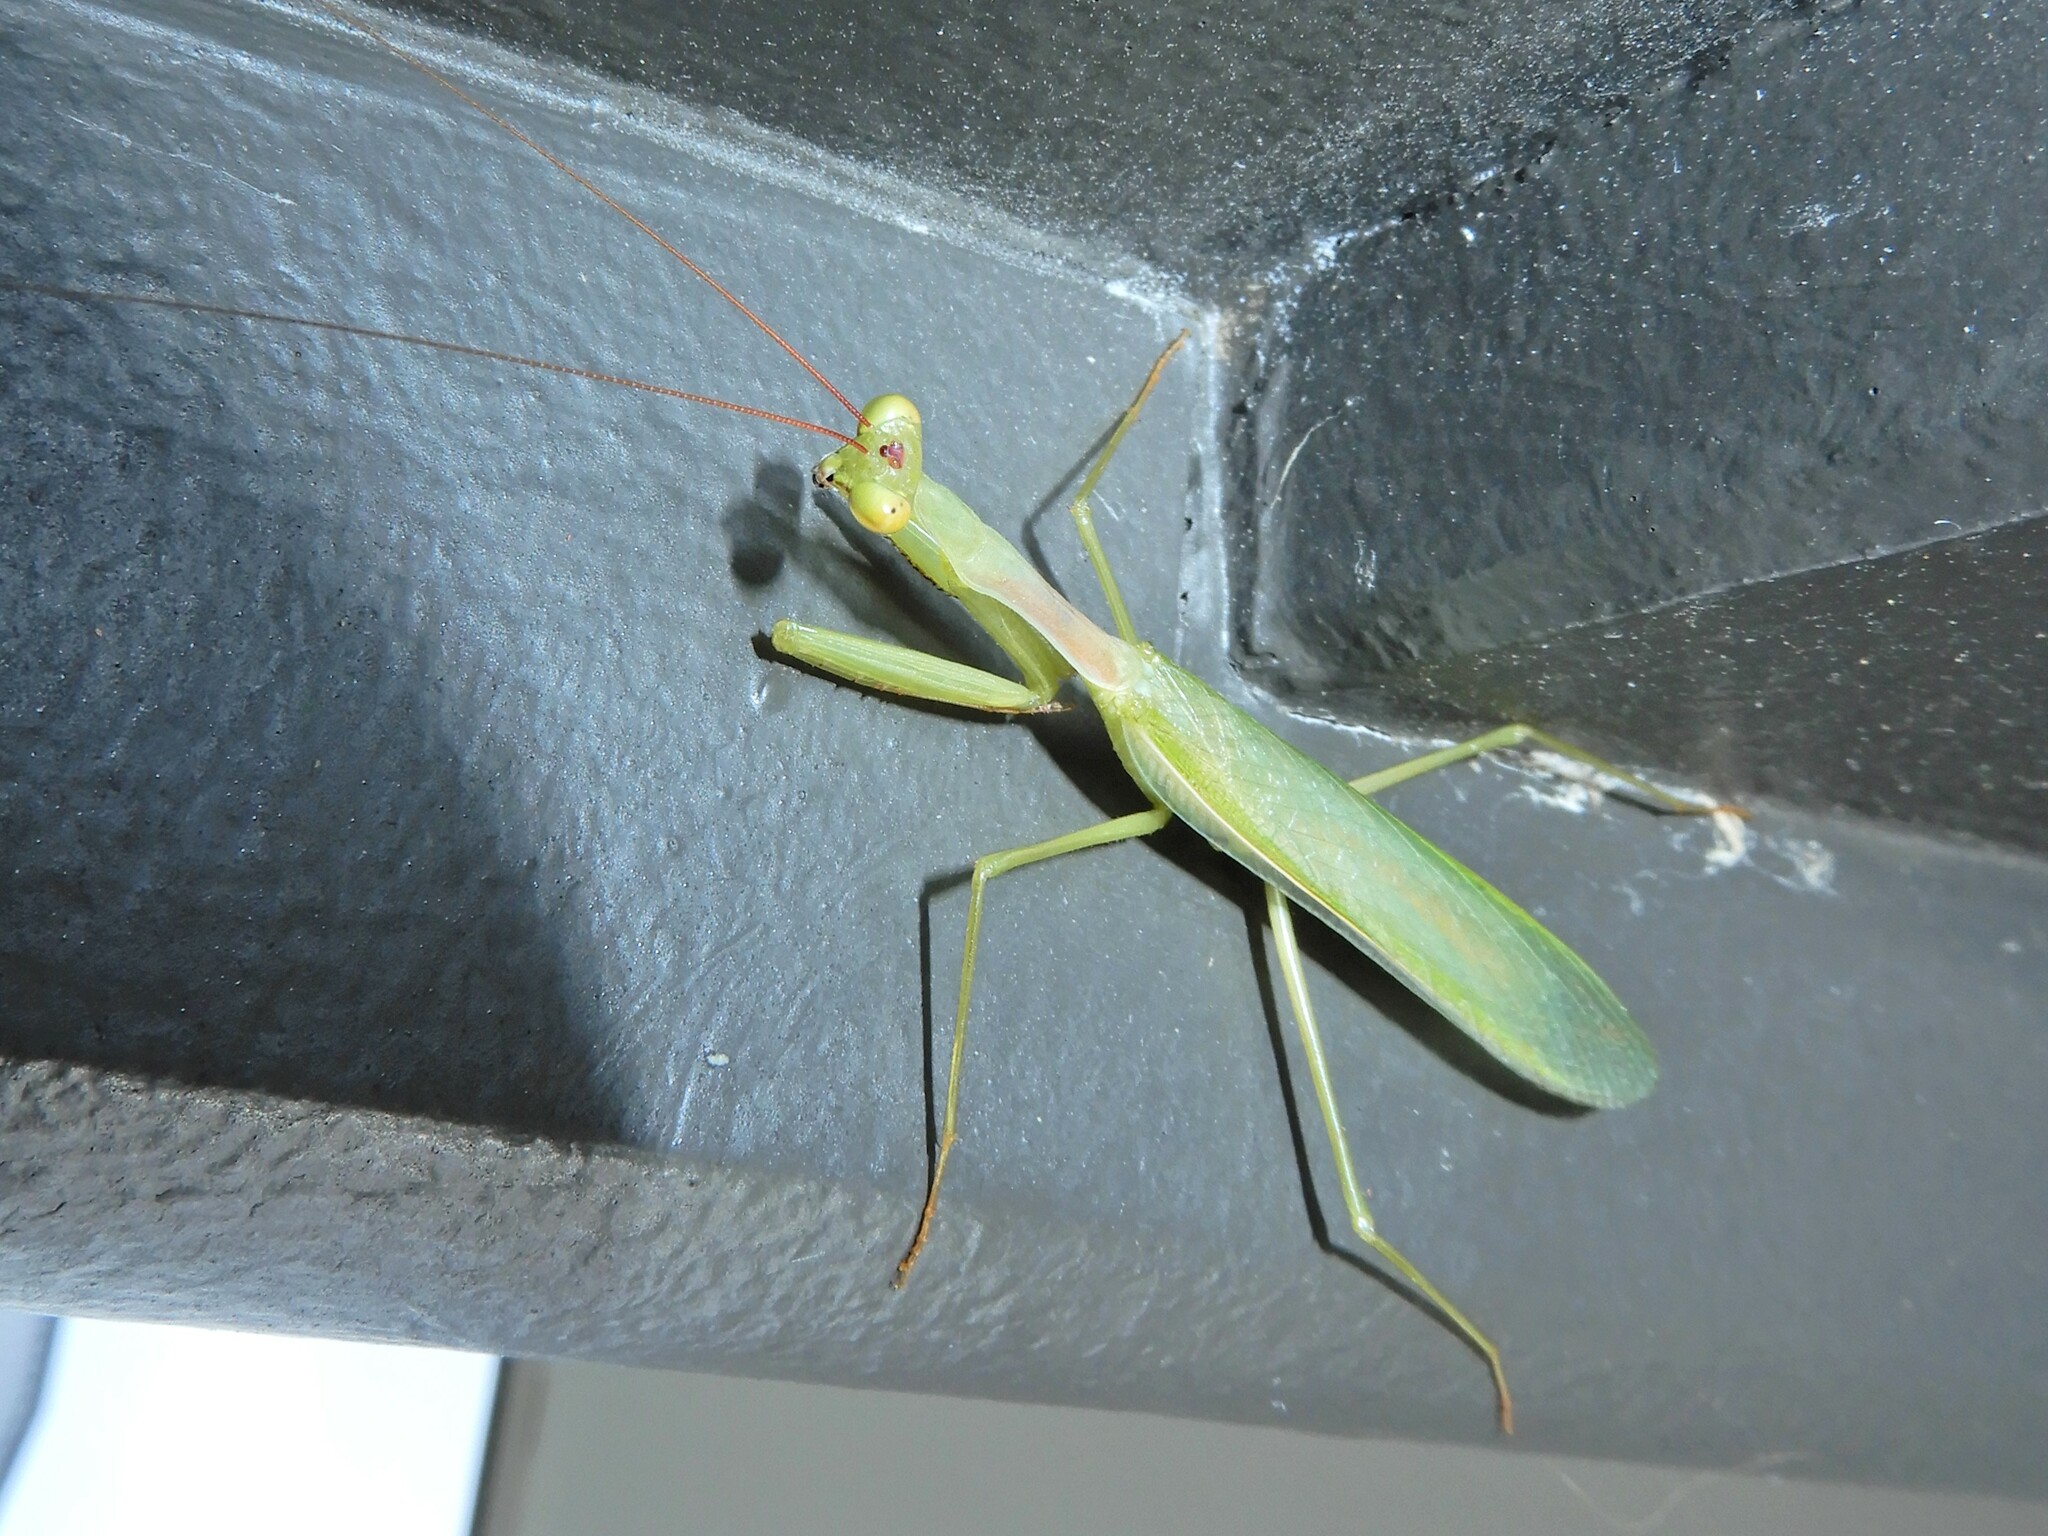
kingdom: Animalia
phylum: Arthropoda
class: Insecta
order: Mantodea
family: Miomantidae
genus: Miomantis
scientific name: Miomantis caffra
